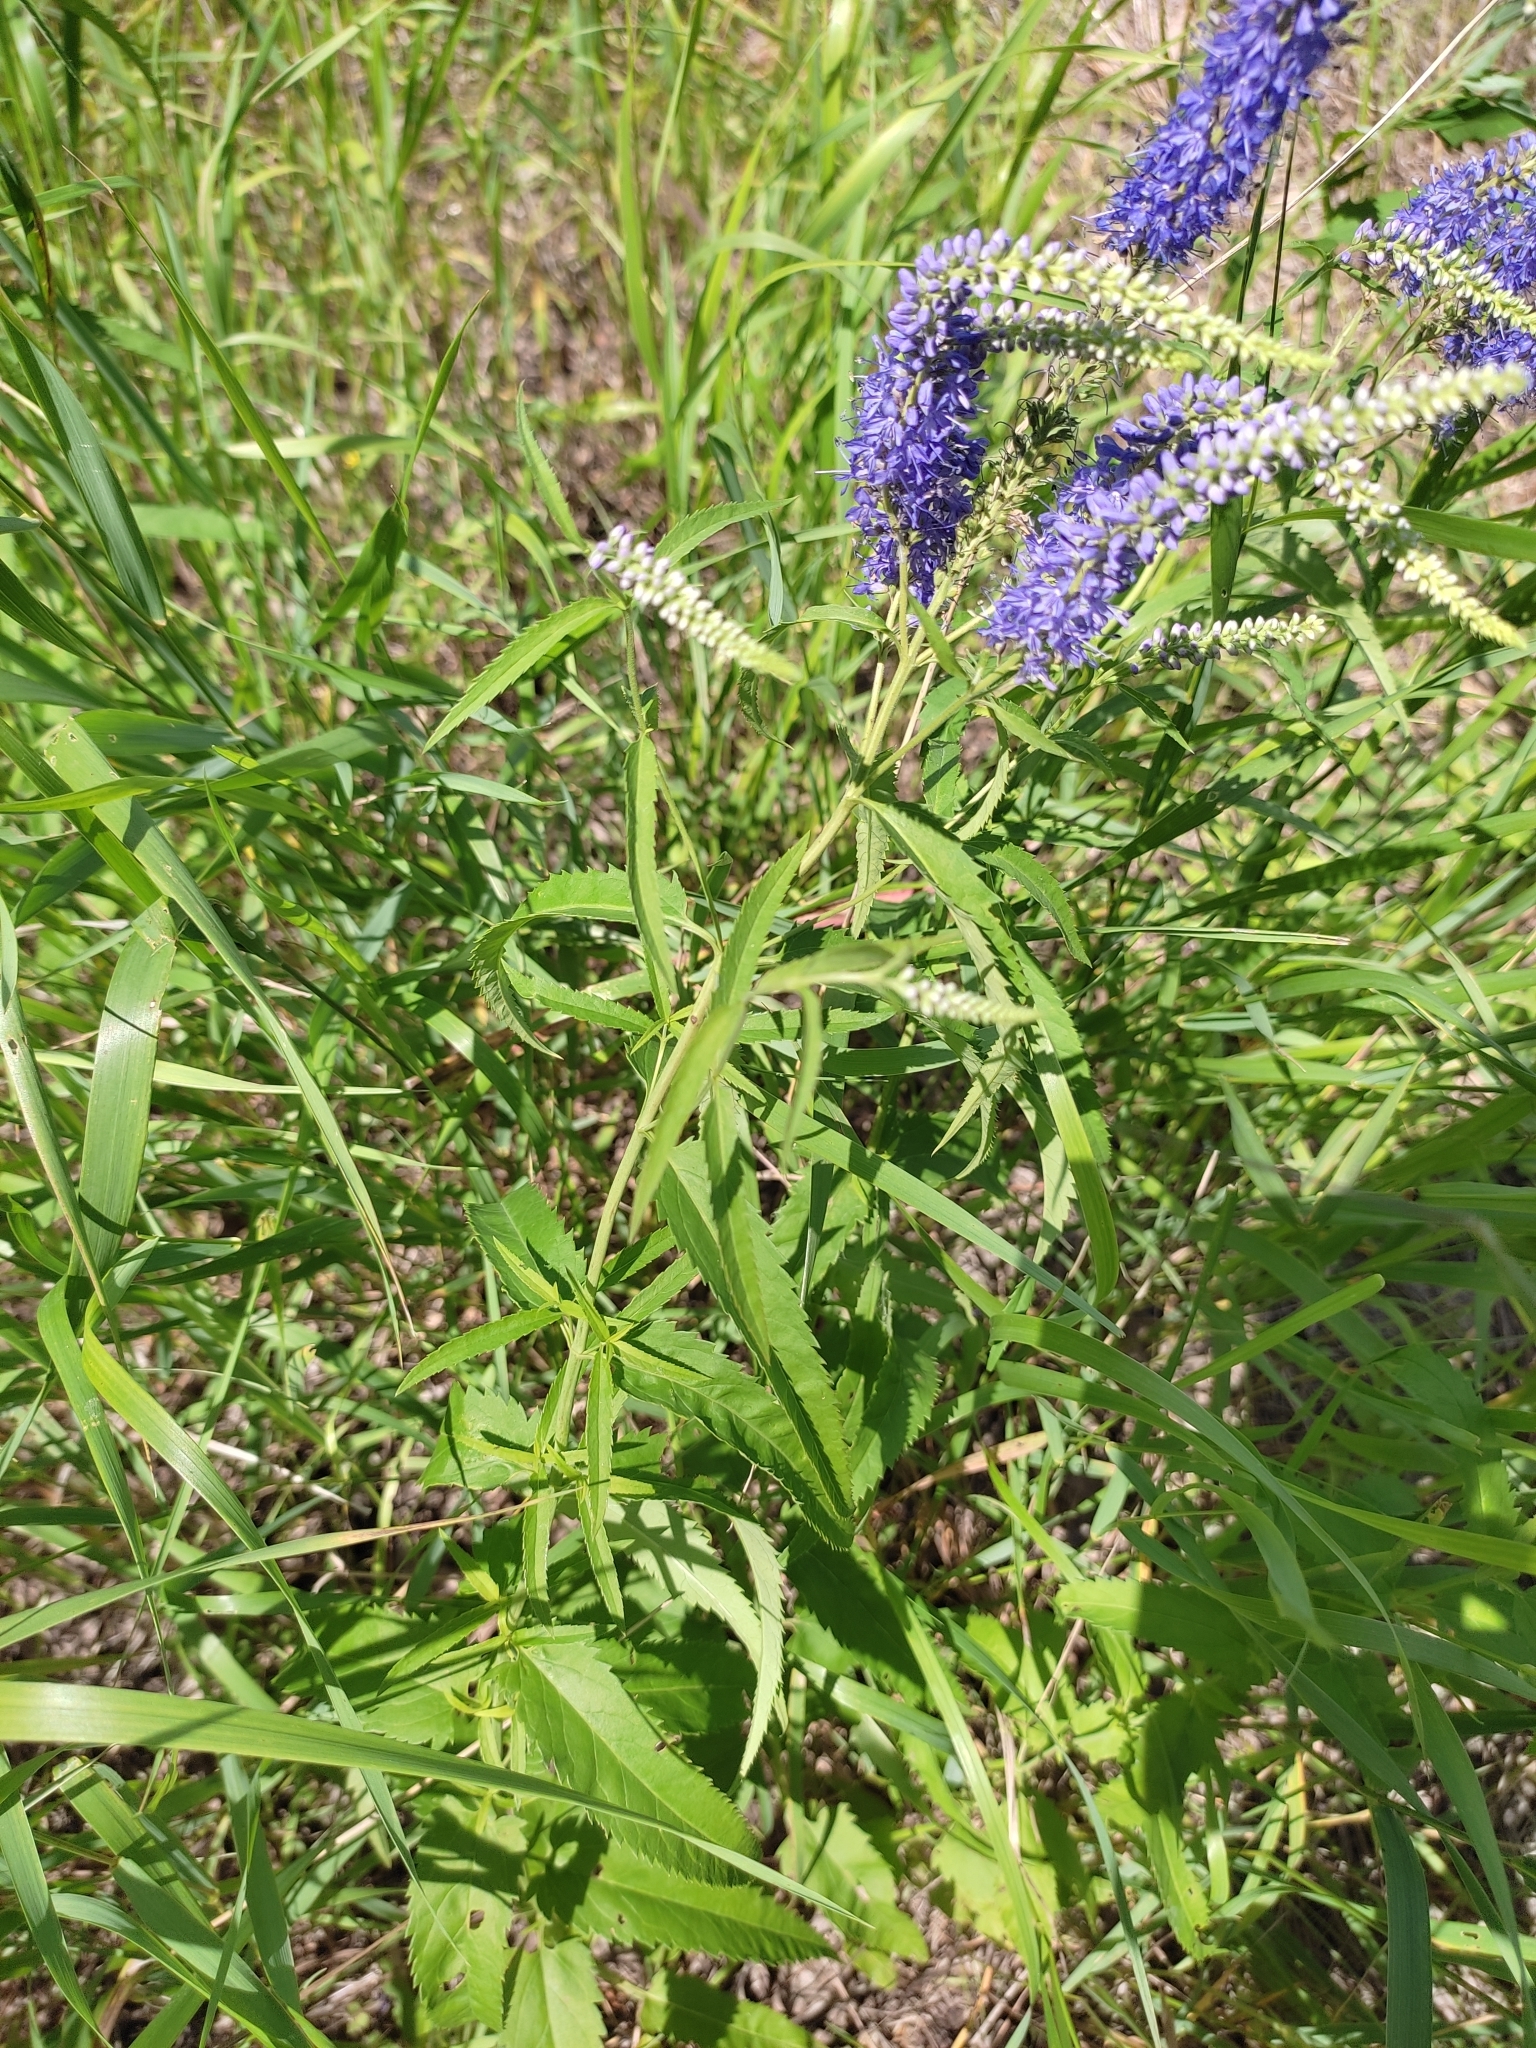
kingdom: Plantae
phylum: Tracheophyta
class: Magnoliopsida
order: Lamiales
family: Plantaginaceae
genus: Veronica
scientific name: Veronica longifolia
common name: Garden speedwell
